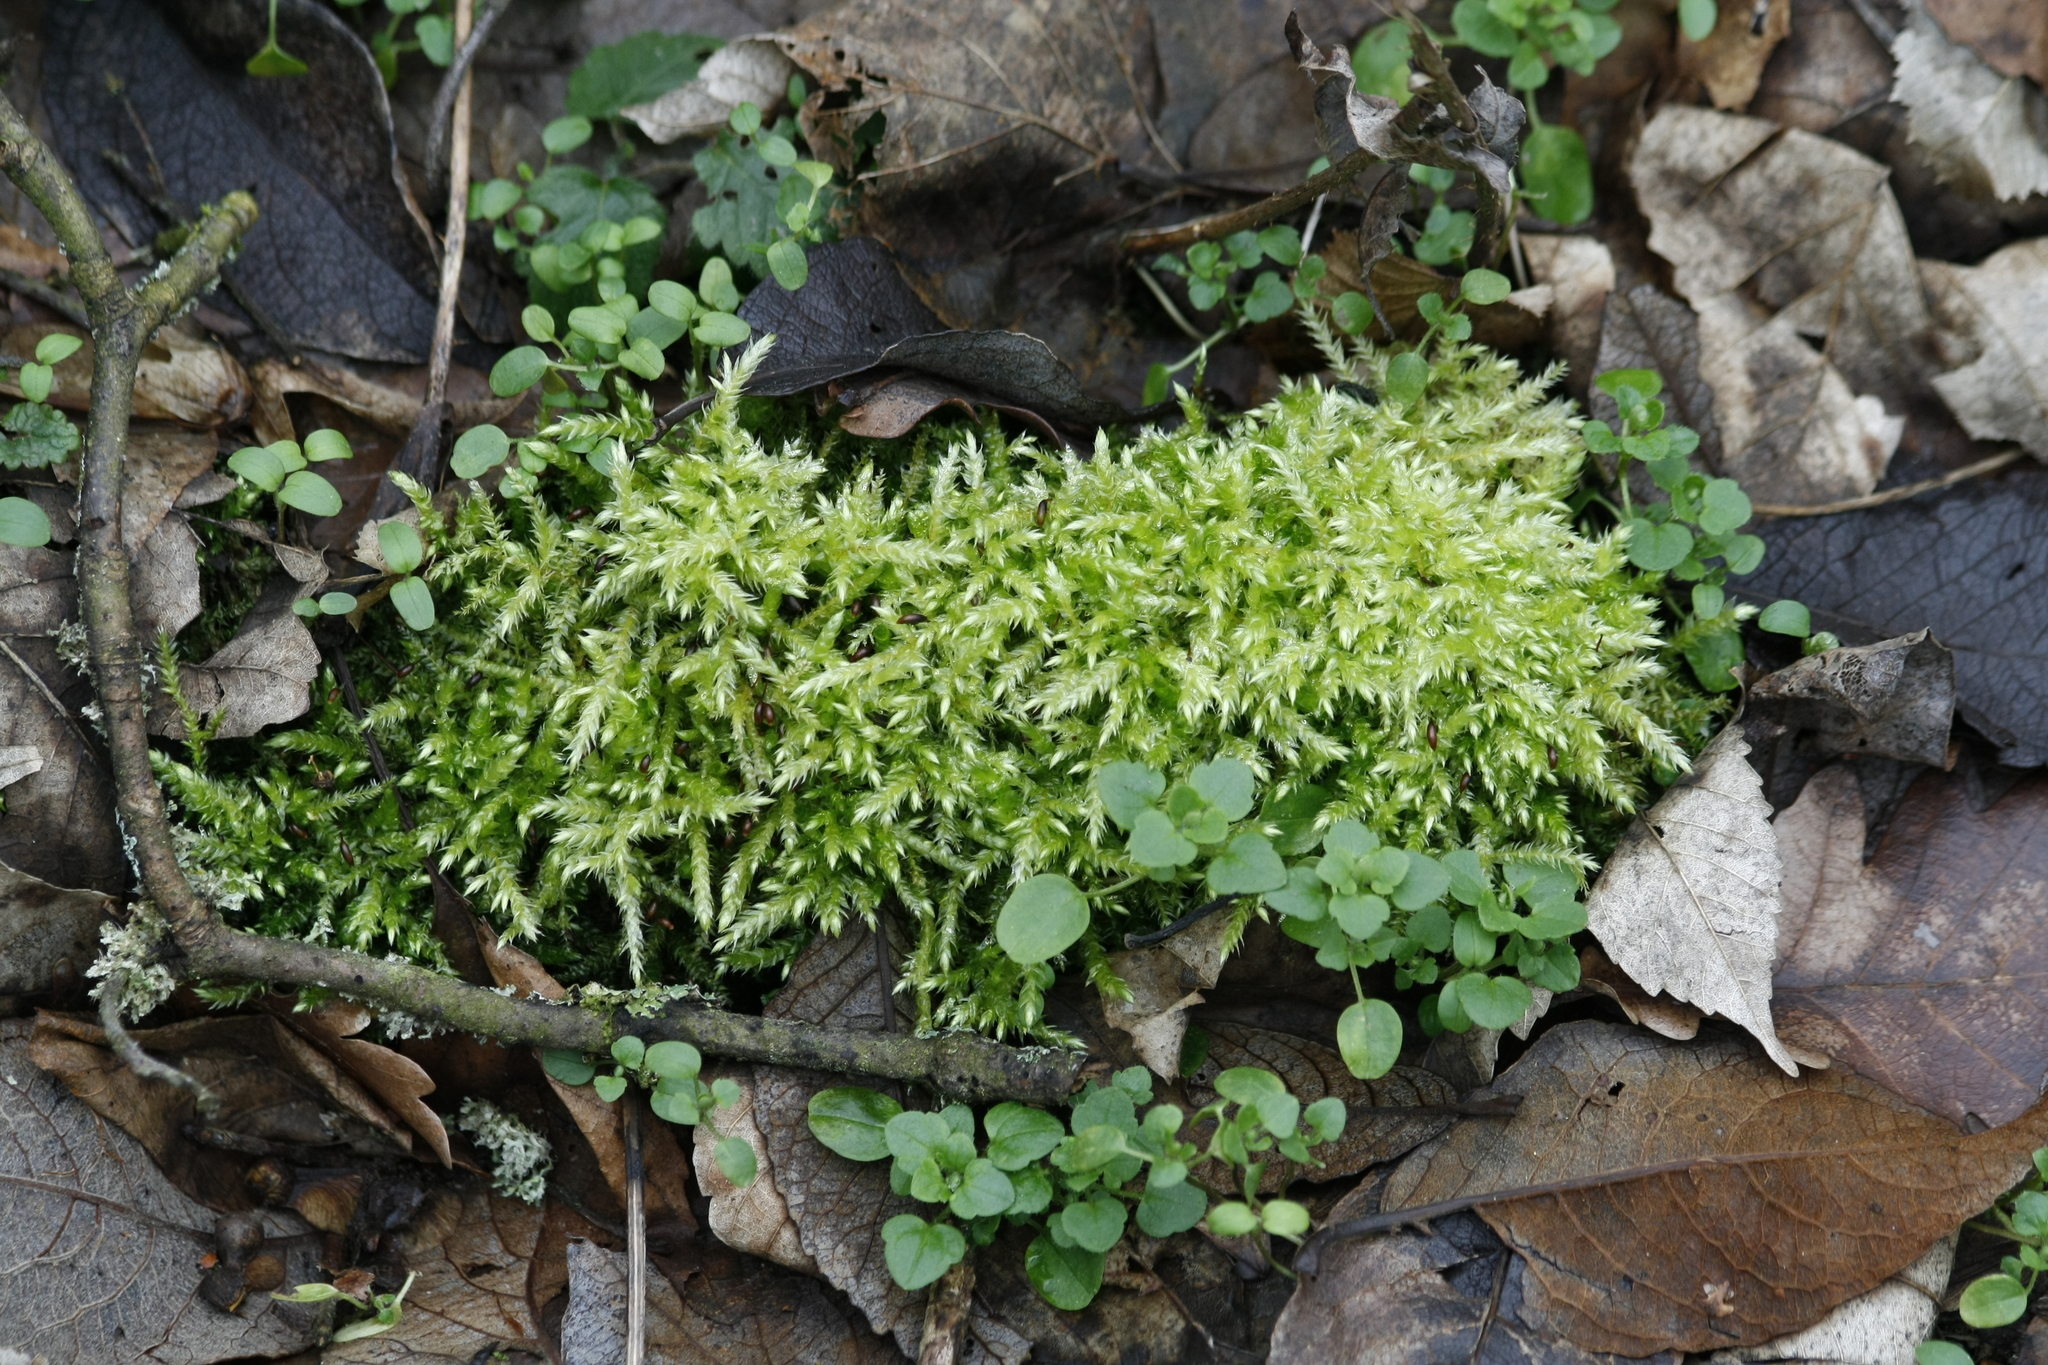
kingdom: Plantae
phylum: Bryophyta
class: Bryopsida
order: Hypnales
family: Brachytheciaceae
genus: Brachythecium
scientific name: Brachythecium rutabulum
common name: Rough-stalked feather-moss
